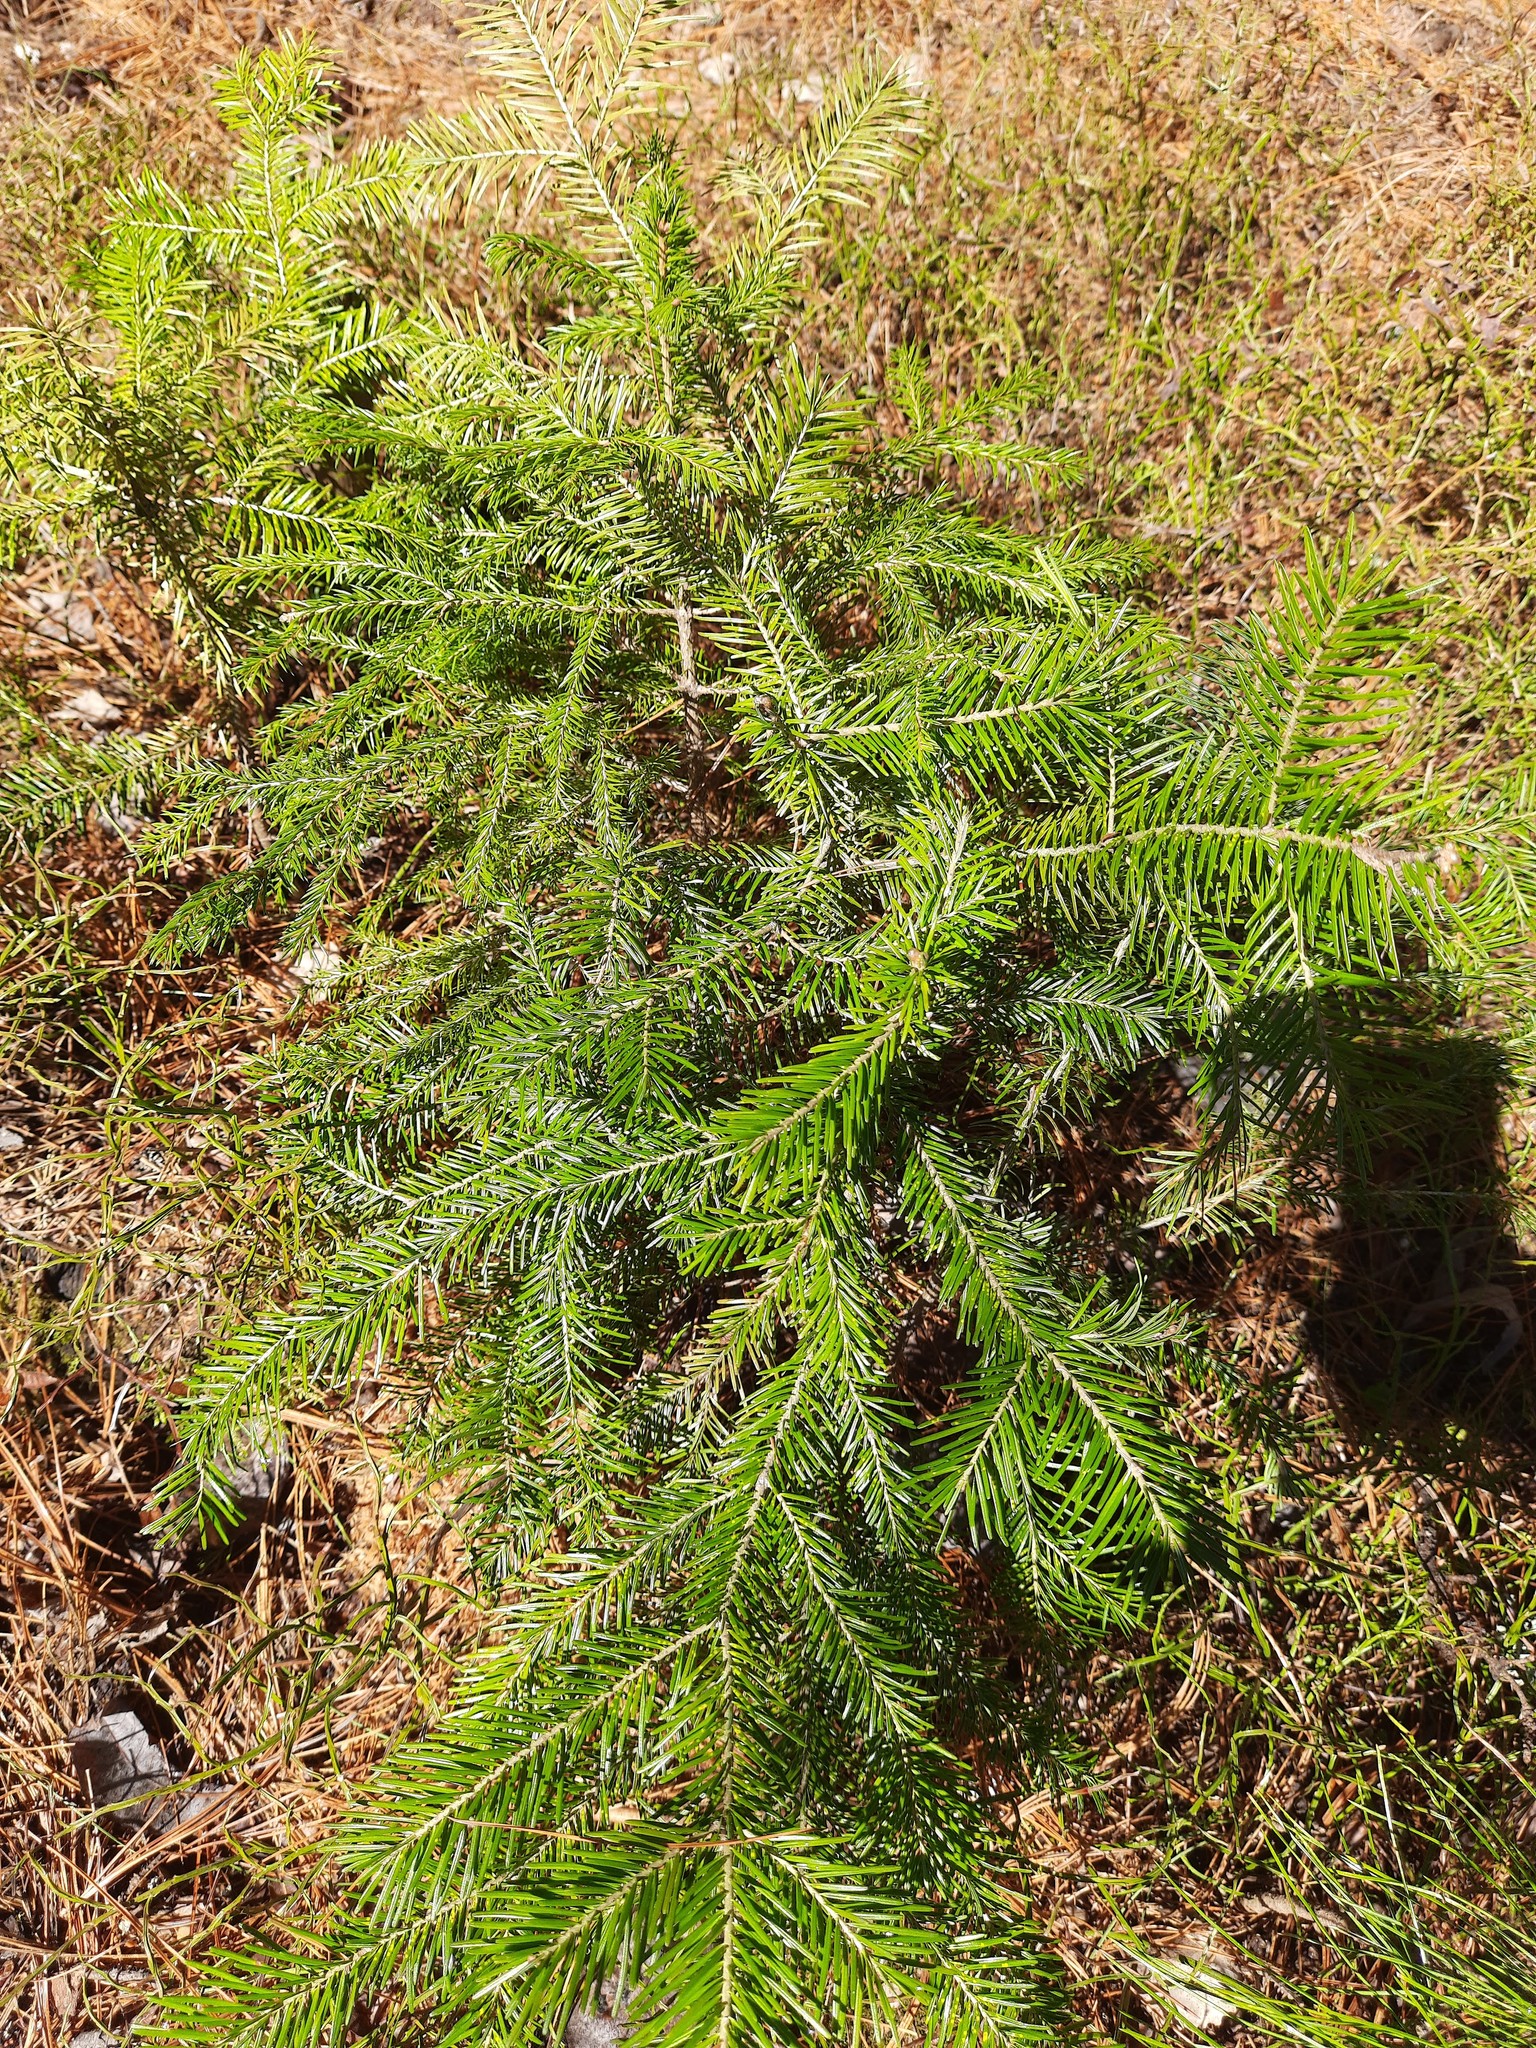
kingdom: Plantae
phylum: Tracheophyta
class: Pinopsida
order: Pinales
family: Pinaceae
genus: Abies
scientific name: Abies sibirica
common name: Siberian fir
